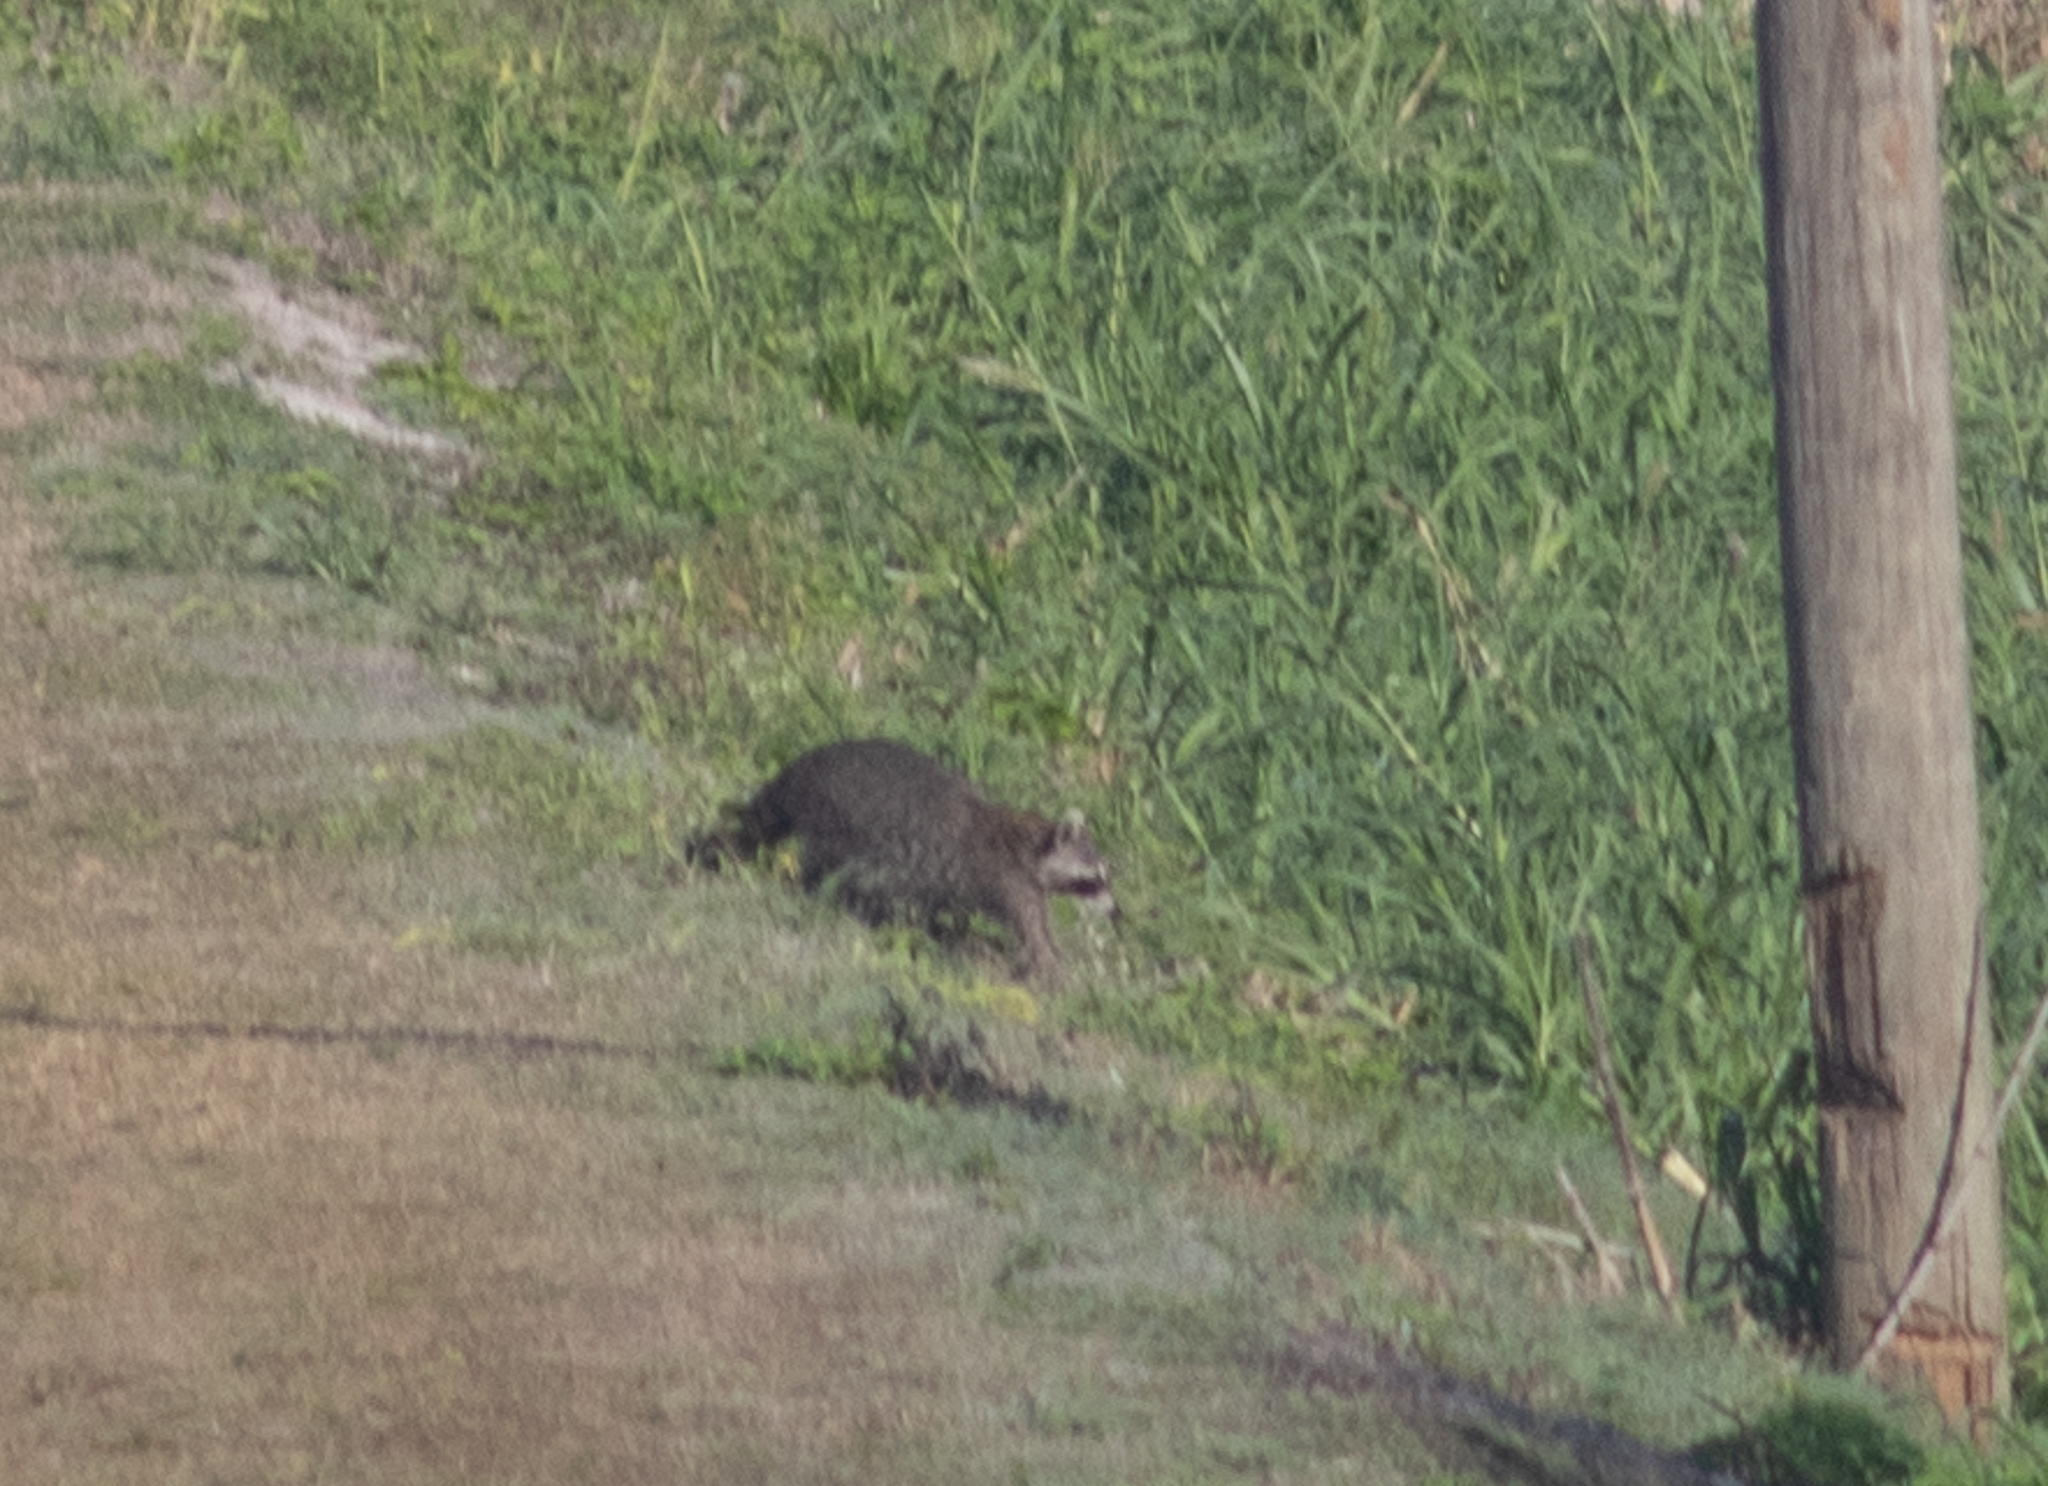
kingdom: Animalia
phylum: Chordata
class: Mammalia
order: Carnivora
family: Procyonidae
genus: Procyon
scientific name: Procyon lotor
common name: Raccoon
